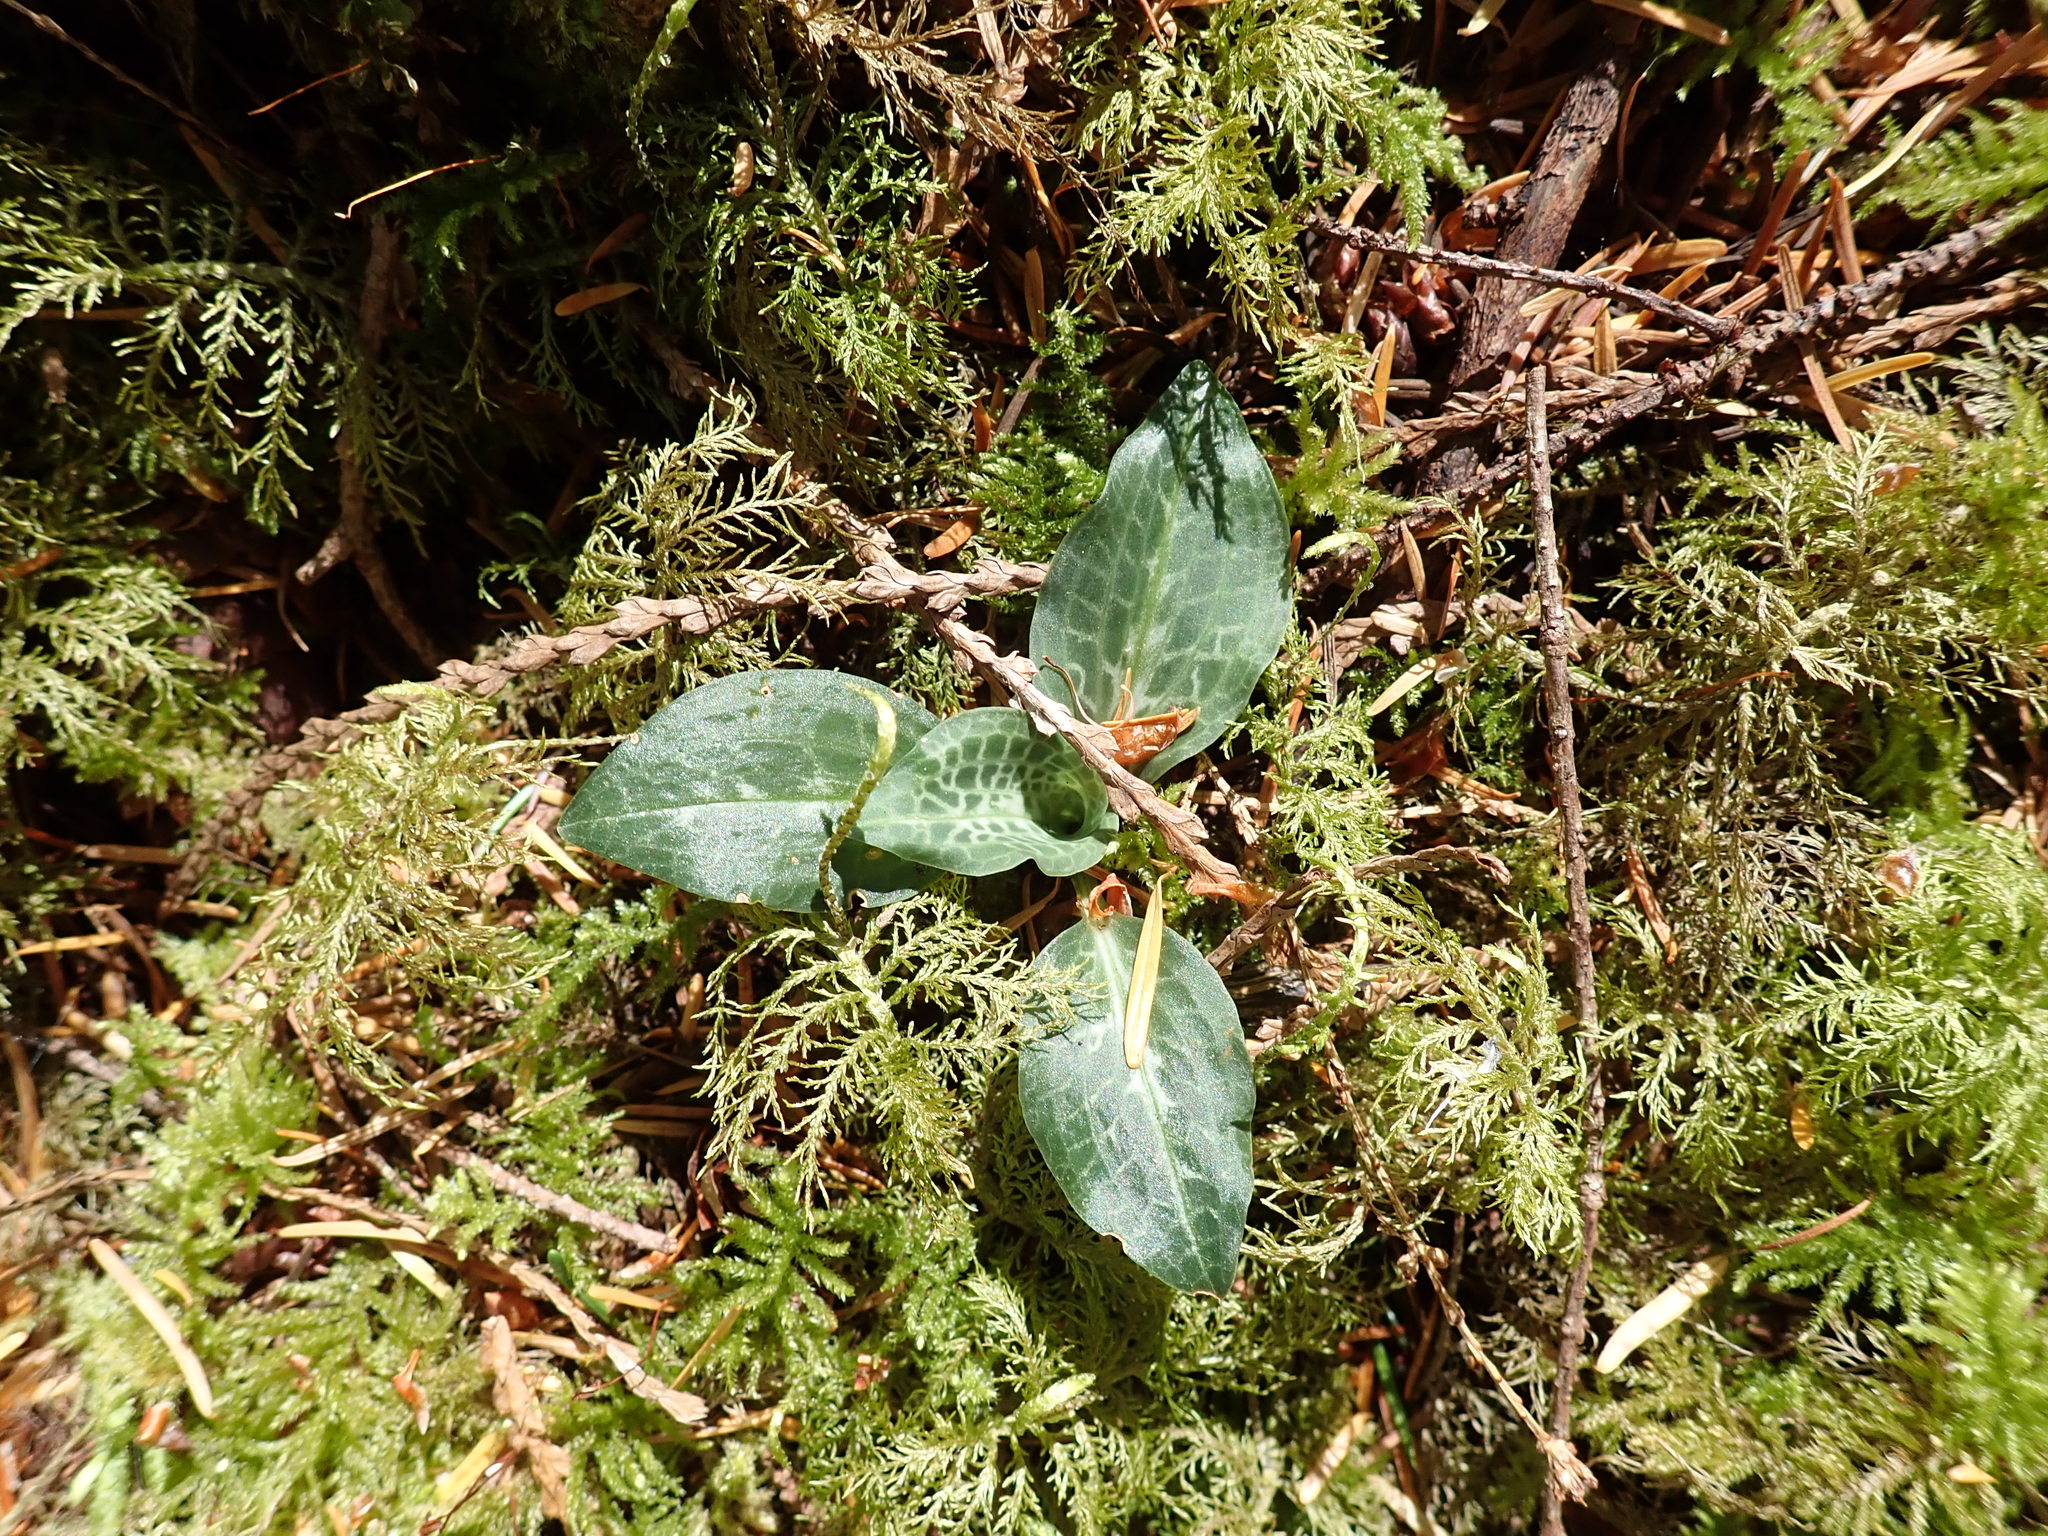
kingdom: Plantae
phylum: Tracheophyta
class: Liliopsida
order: Asparagales
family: Orchidaceae
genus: Goodyera
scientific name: Goodyera oblongifolia
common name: Giant rattlesnake-plantain
